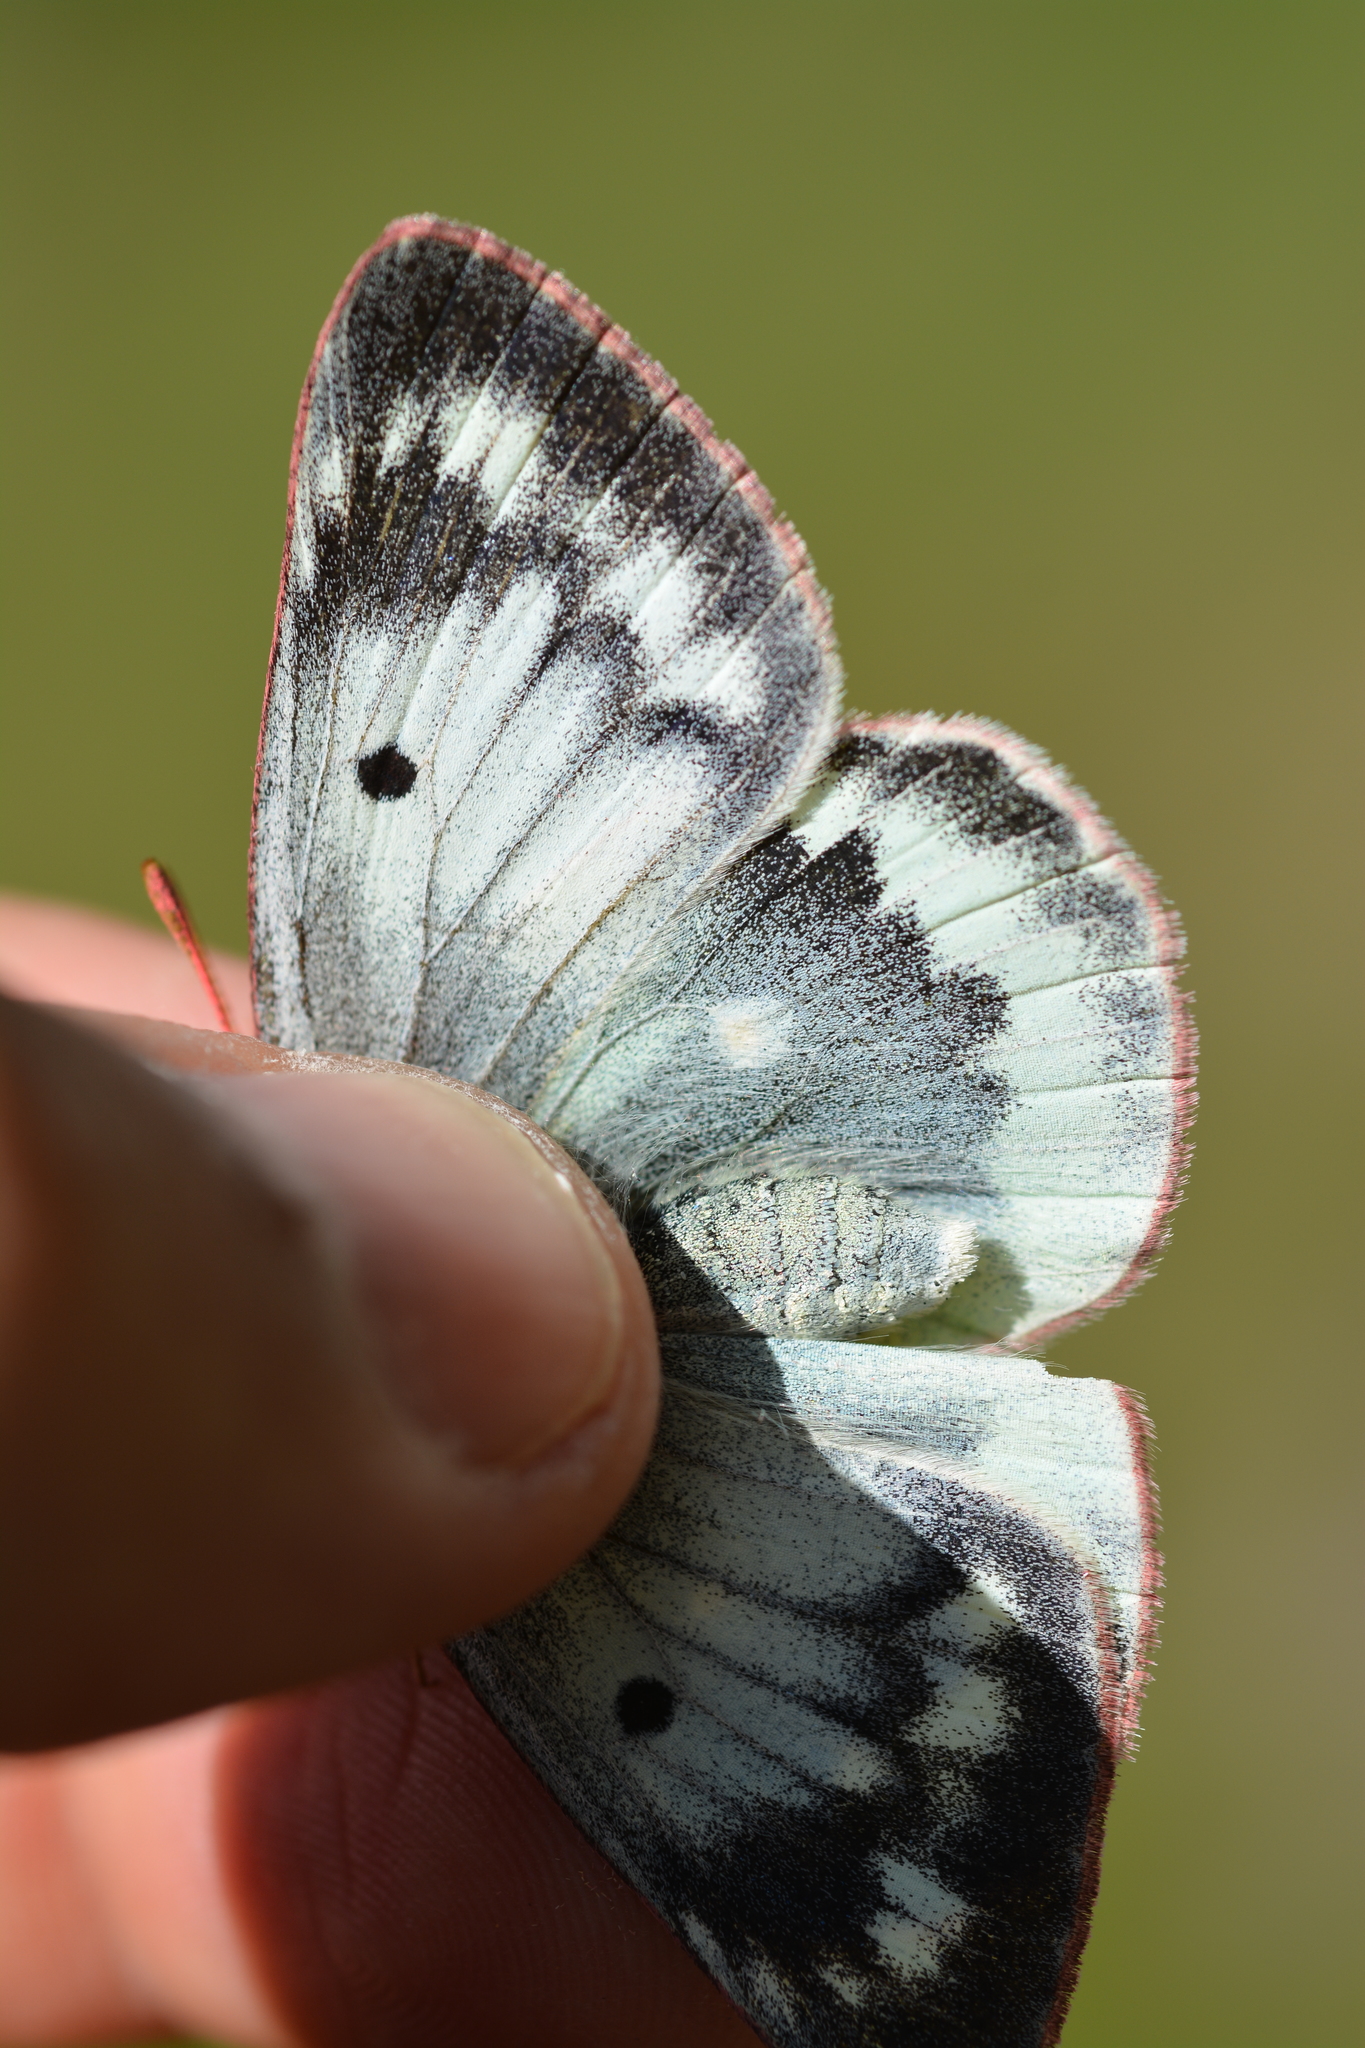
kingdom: Animalia
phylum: Arthropoda
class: Insecta
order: Lepidoptera
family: Pieridae
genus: Colias
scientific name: Colias phicomone
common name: Mountain clouded yellow
